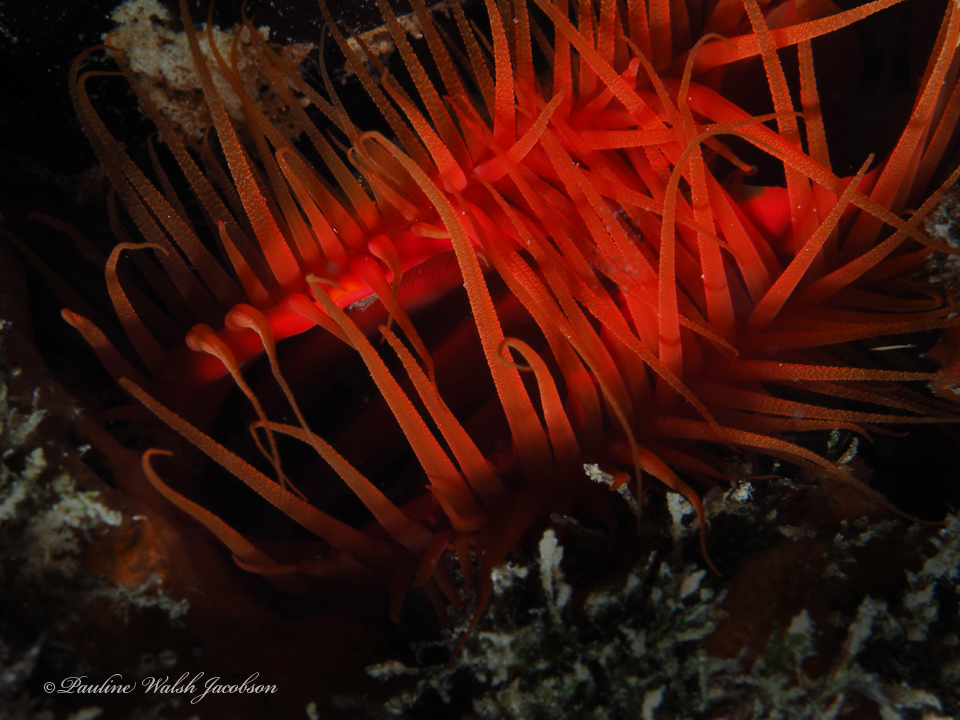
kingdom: Animalia
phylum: Mollusca
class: Bivalvia
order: Limida
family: Limidae
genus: Ctenoides
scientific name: Ctenoides scaber
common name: Rough fileclam
